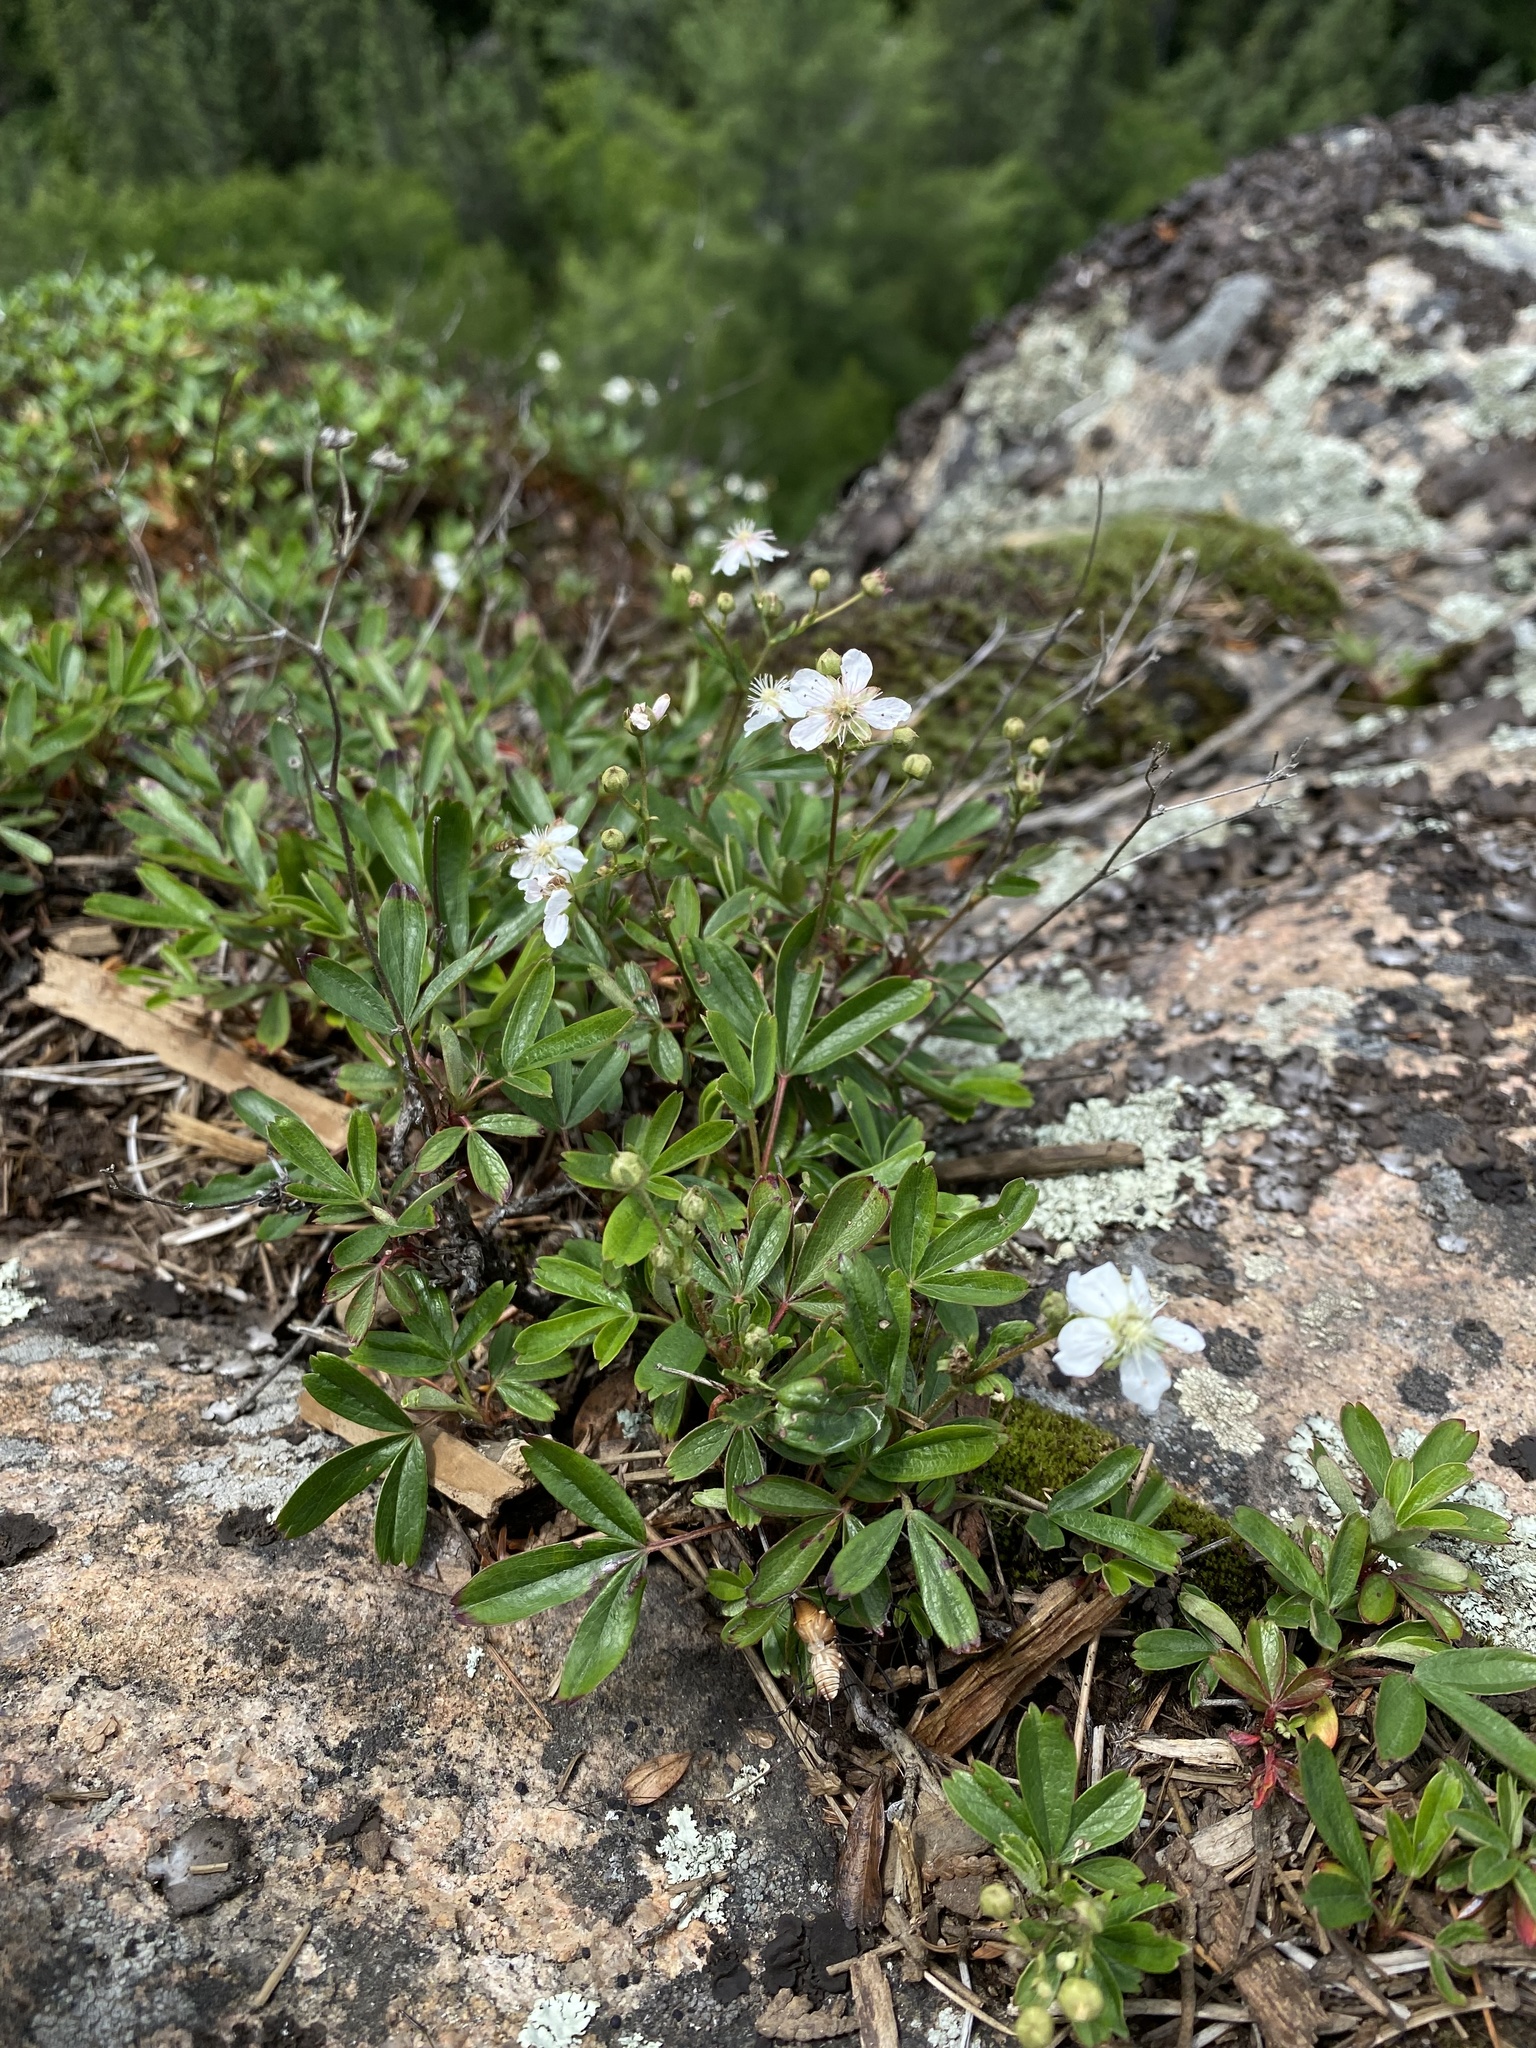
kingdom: Plantae
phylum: Tracheophyta
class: Magnoliopsida
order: Rosales
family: Rosaceae
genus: Sibbaldia
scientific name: Sibbaldia tridentata
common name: Three-toothed cinquefoil
